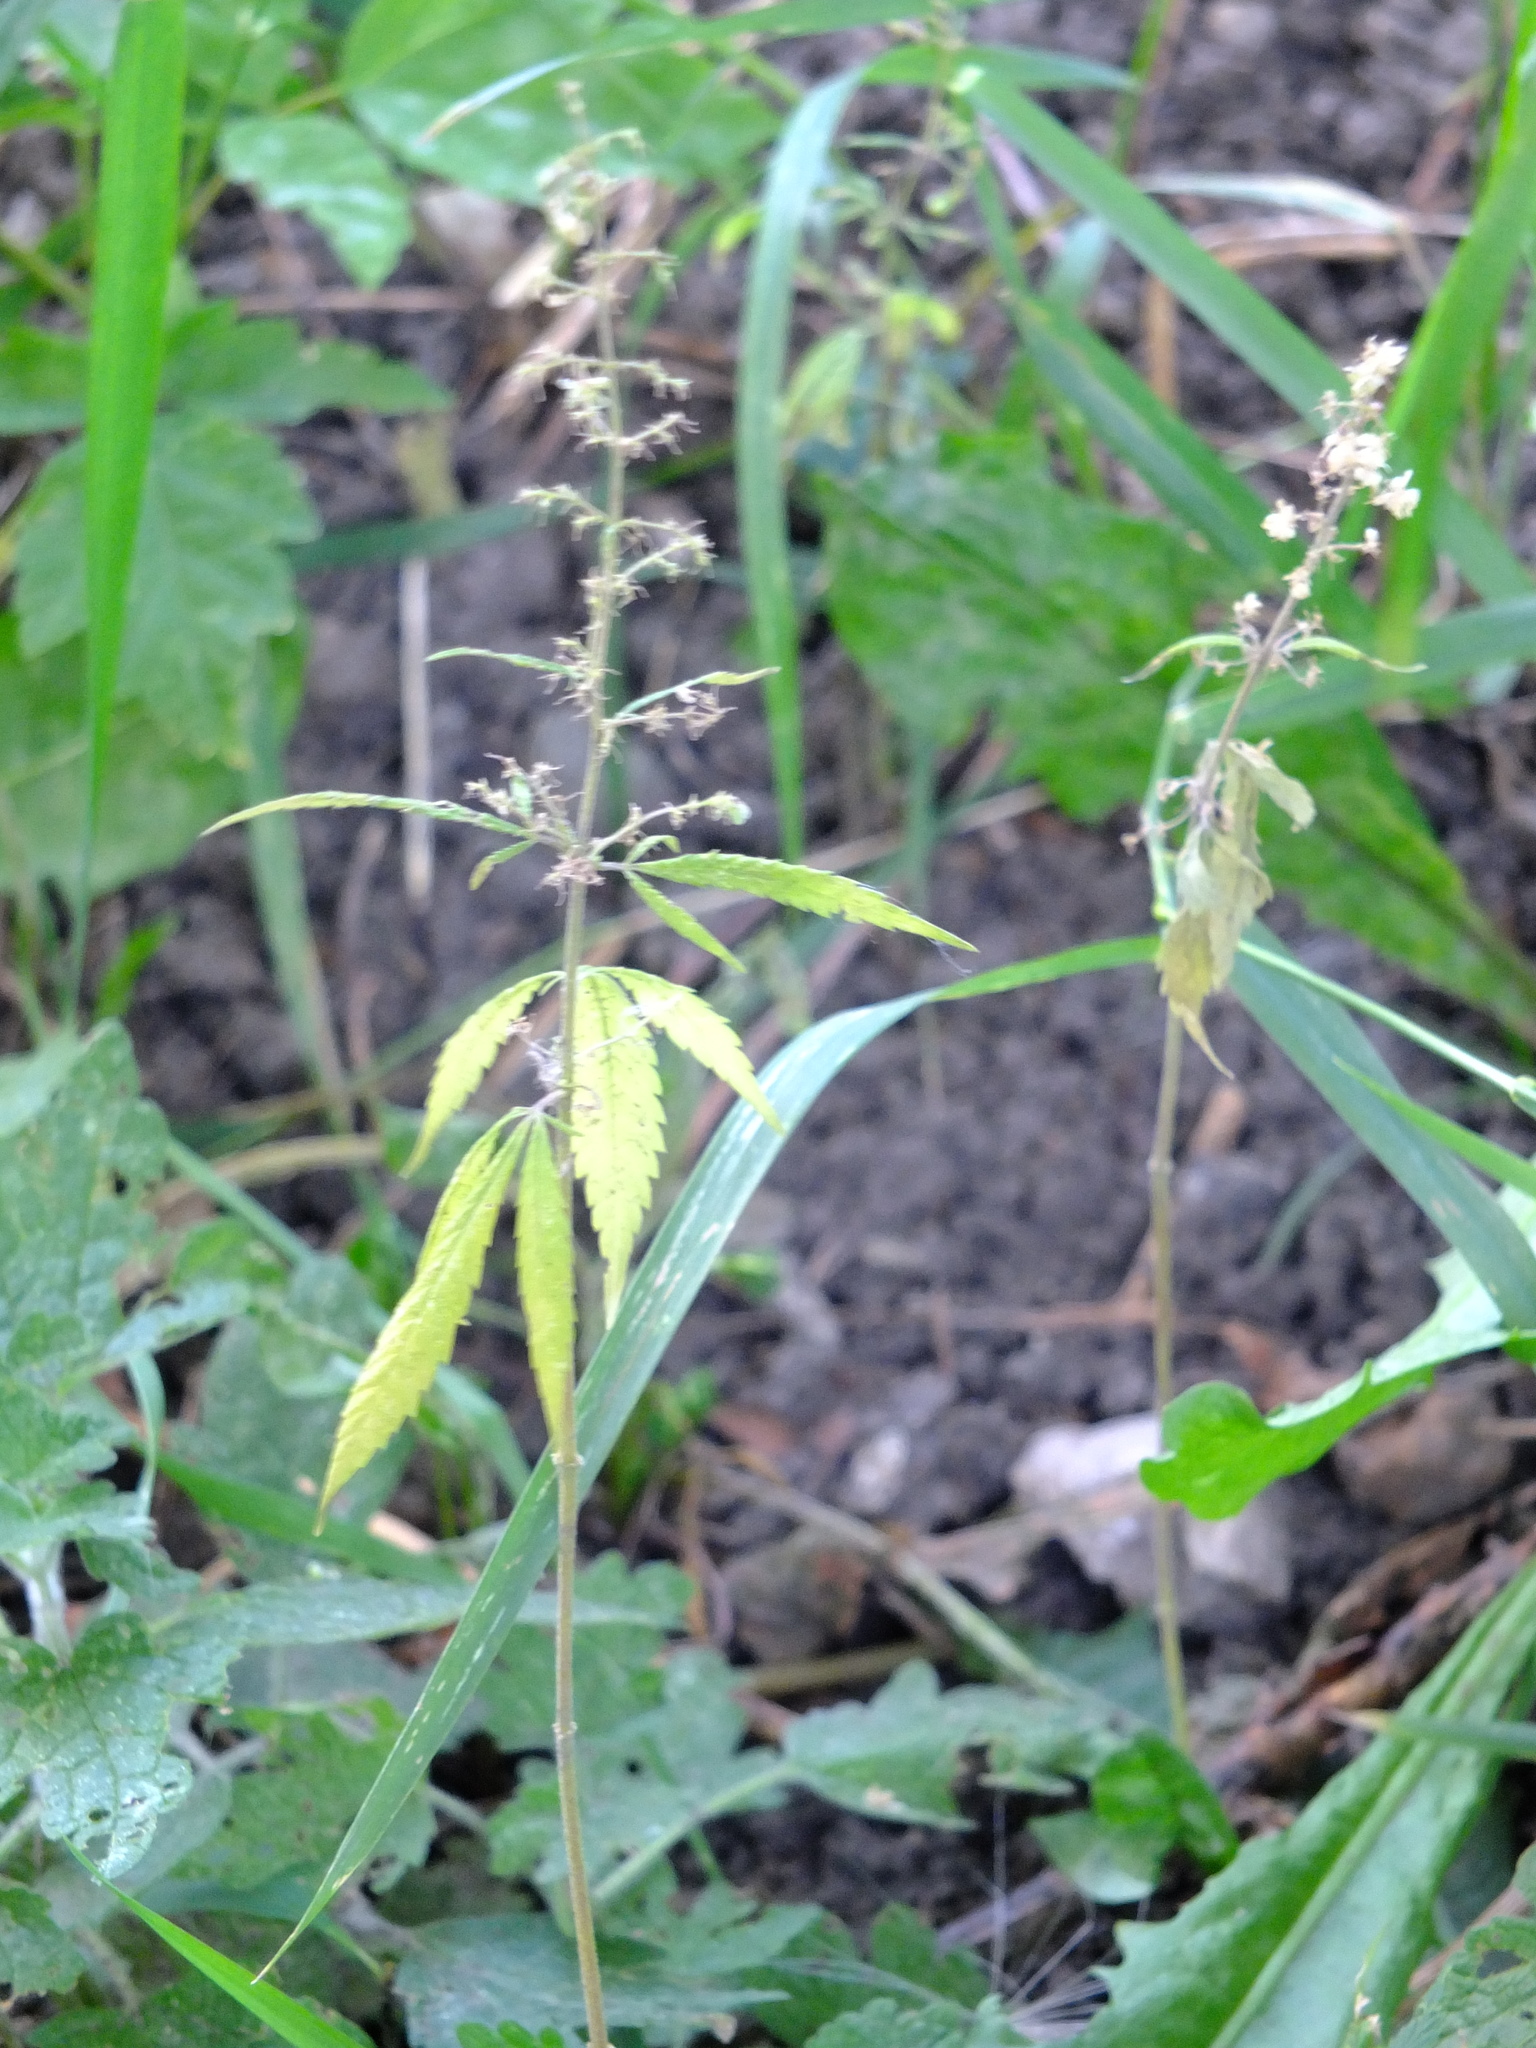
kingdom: Plantae
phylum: Tracheophyta
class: Magnoliopsida
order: Rosales
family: Cannabaceae
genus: Cannabis
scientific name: Cannabis sativa
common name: Hemp
